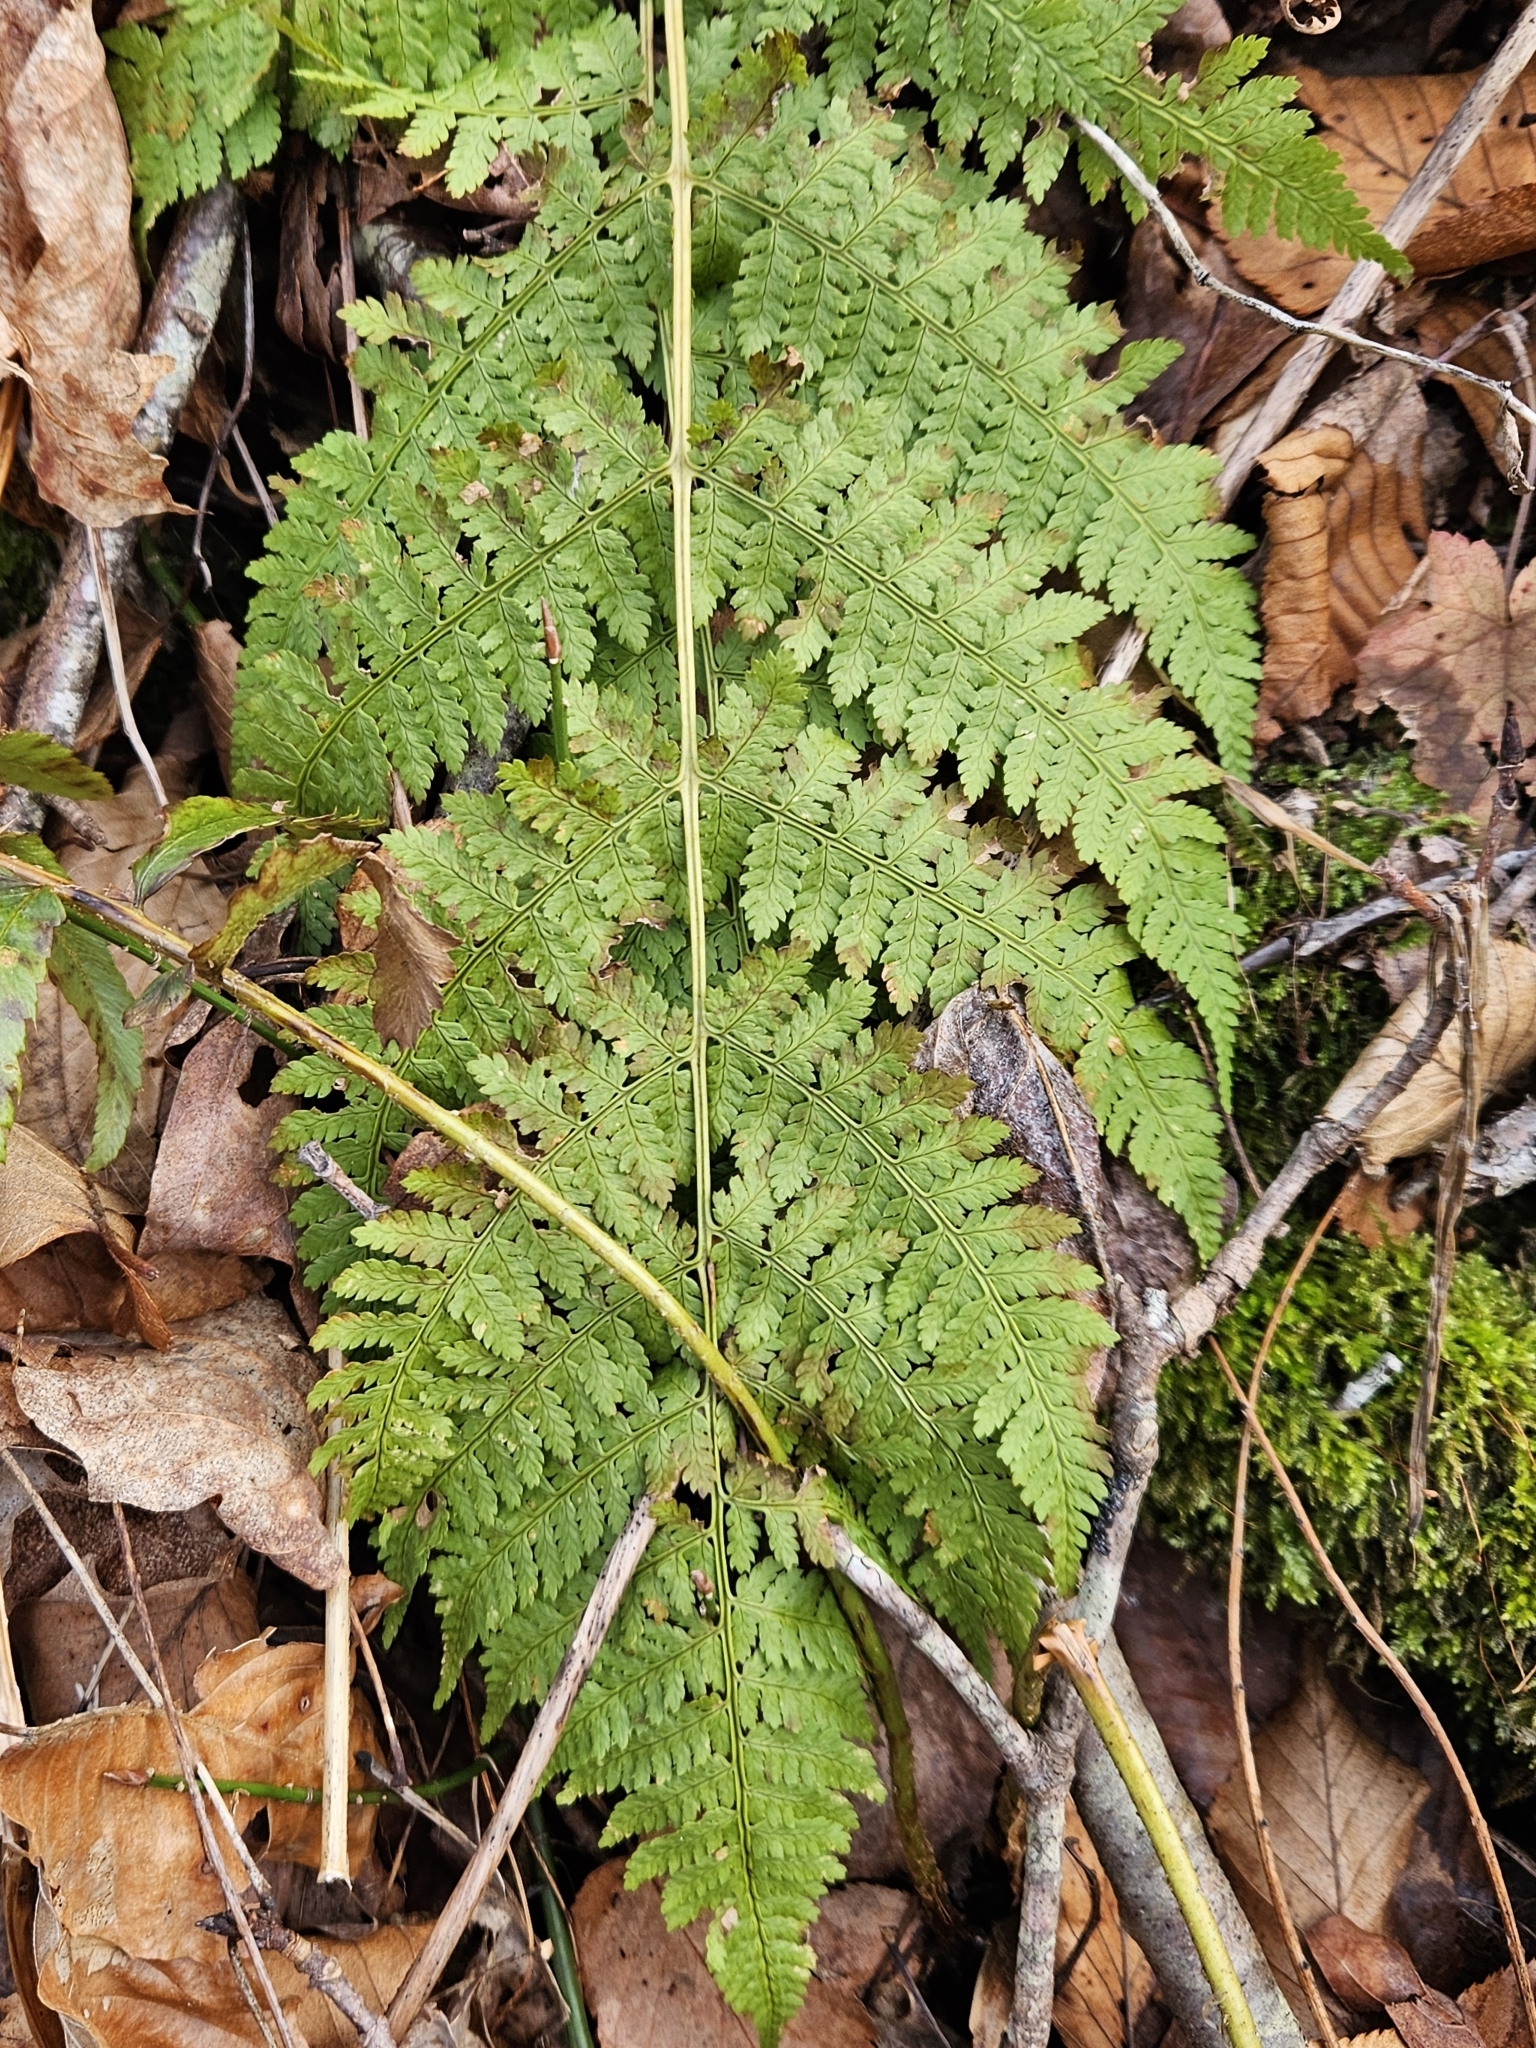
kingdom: Plantae
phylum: Tracheophyta
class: Polypodiopsida
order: Polypodiales
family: Dryopteridaceae
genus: Dryopteris
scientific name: Dryopteris intermedia
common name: Evergreen wood fern
